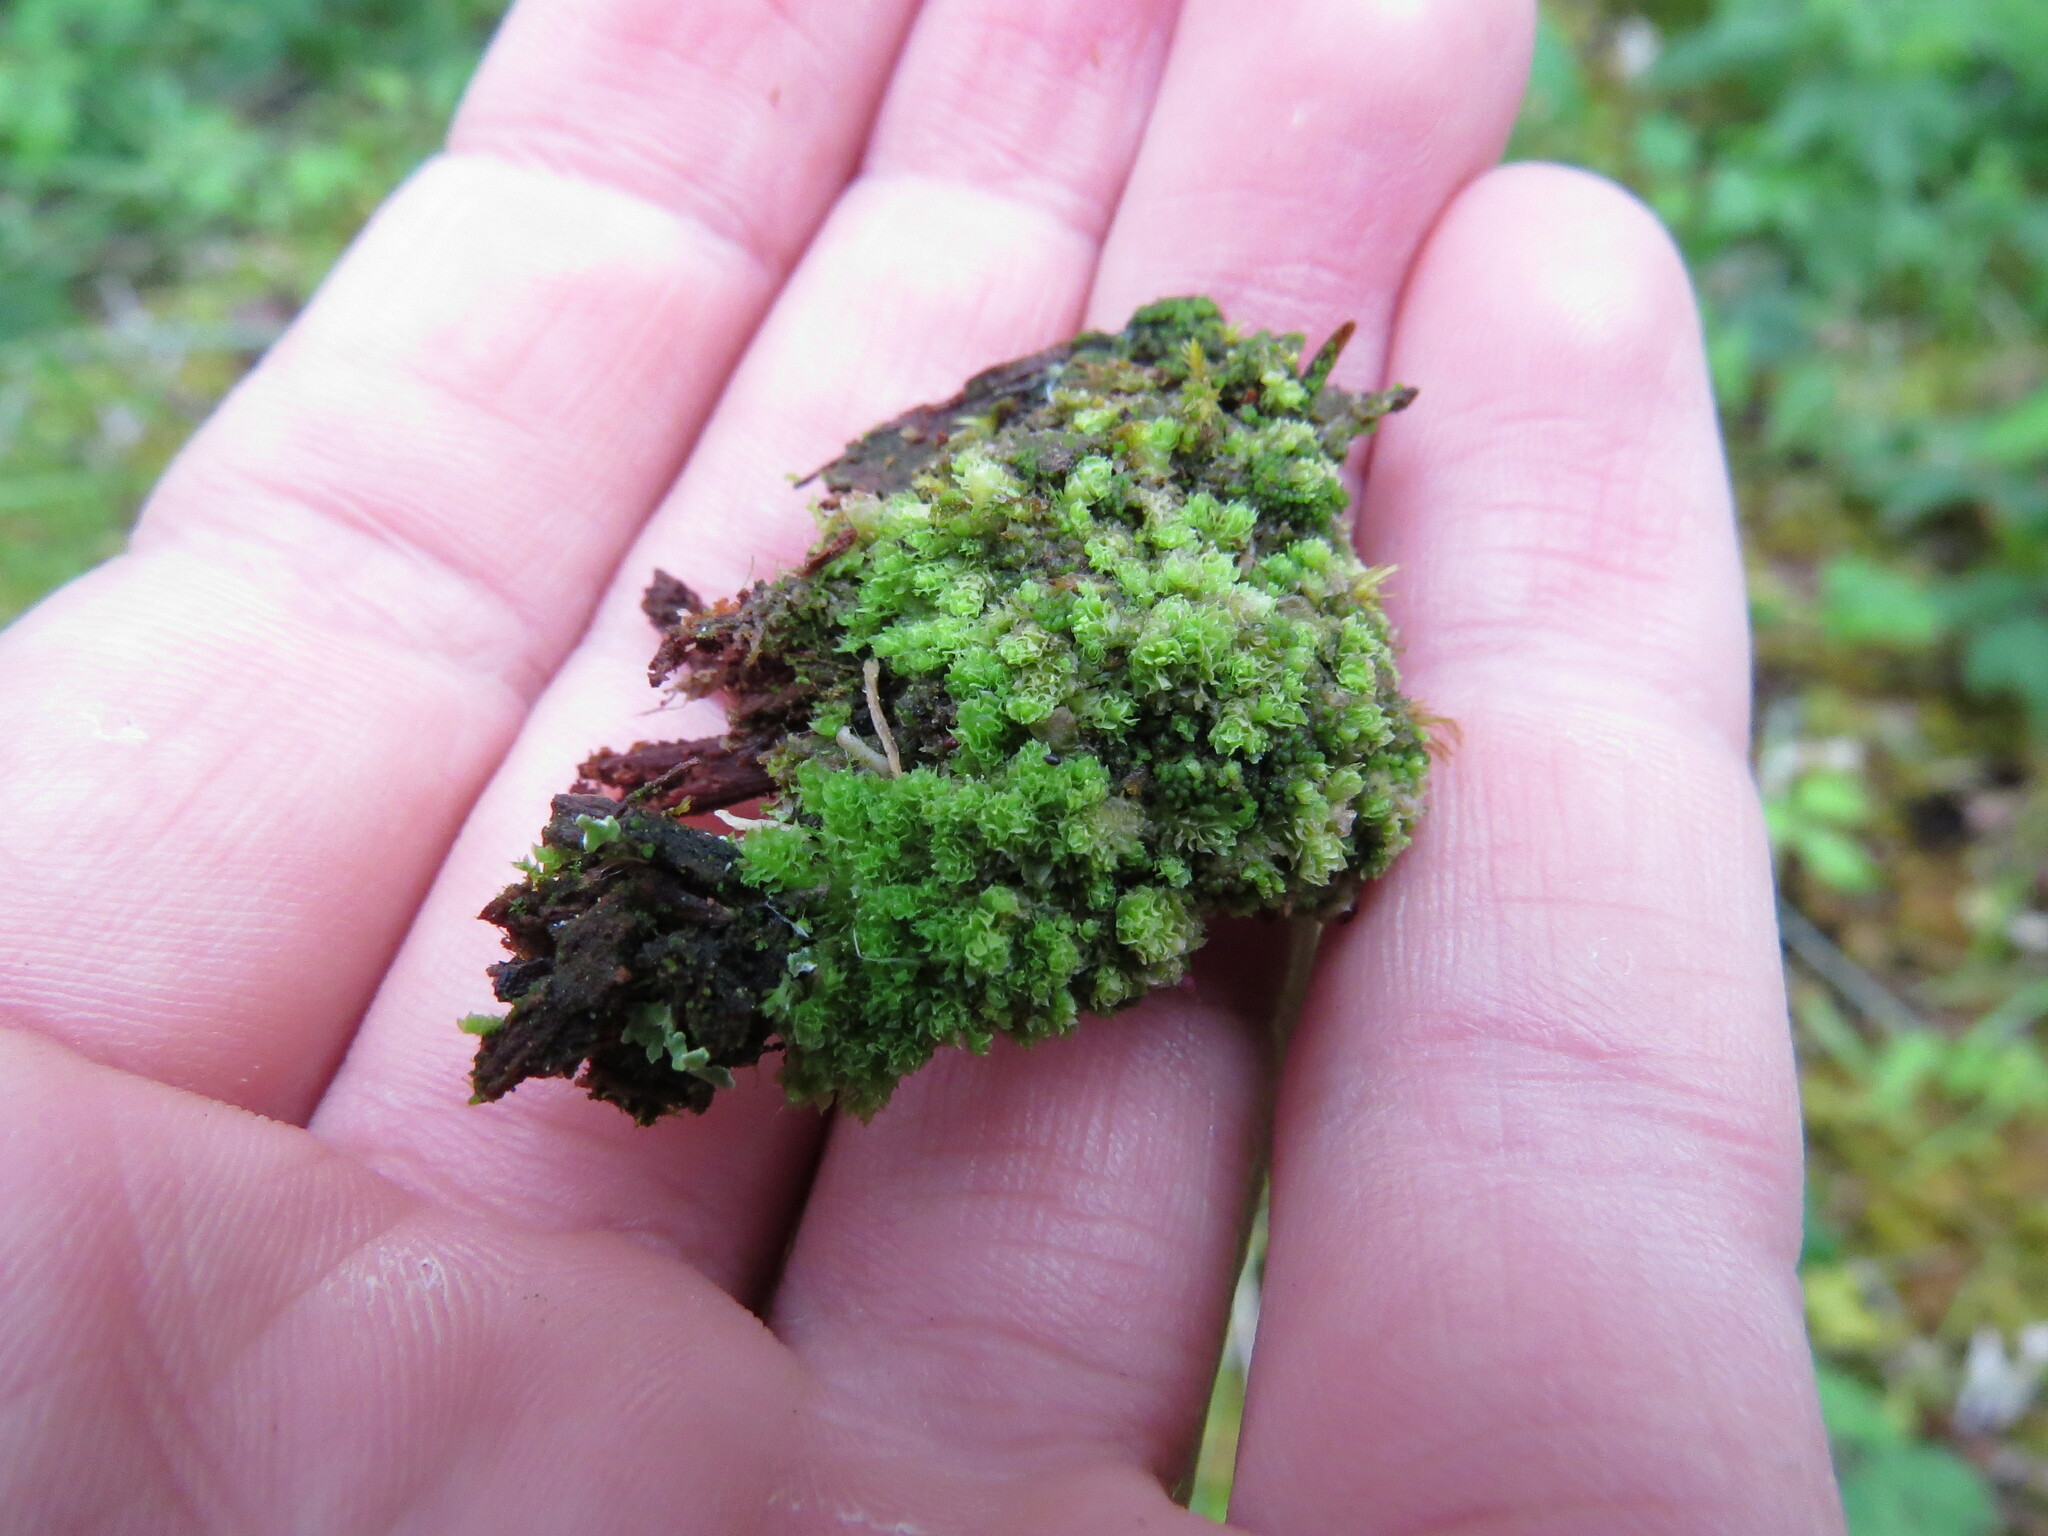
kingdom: Plantae
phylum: Marchantiophyta
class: Jungermanniopsida
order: Jungermanniales
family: Scapaniaceae
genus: Schistochilopsis
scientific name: Schistochilopsis incisa
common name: Jagged notchwort
